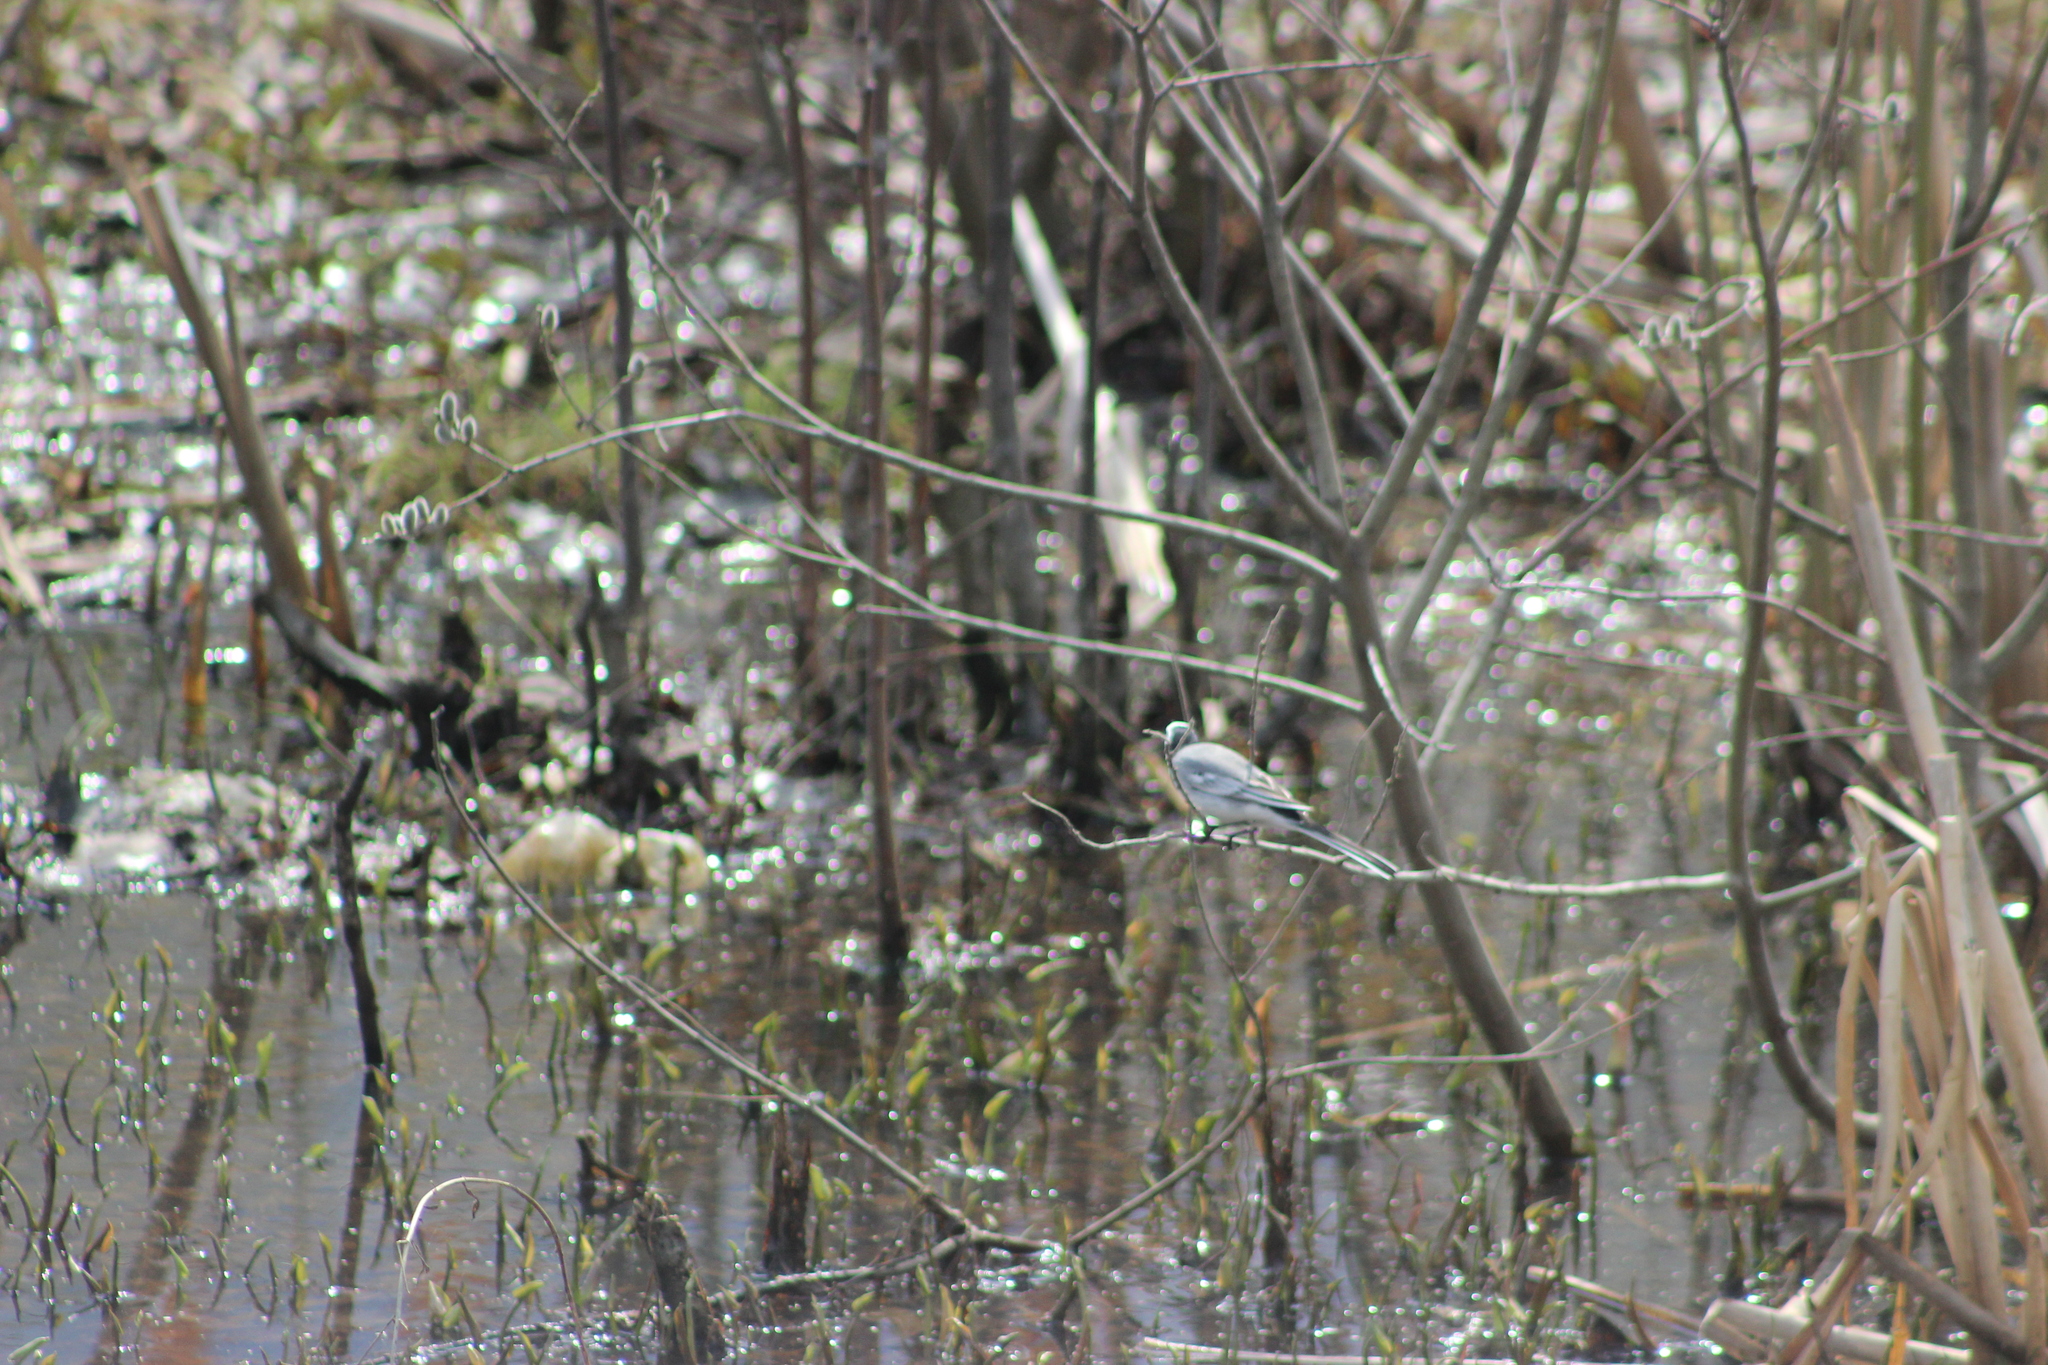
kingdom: Animalia
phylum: Chordata
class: Aves
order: Passeriformes
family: Motacillidae
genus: Motacilla
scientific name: Motacilla alba
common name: White wagtail
